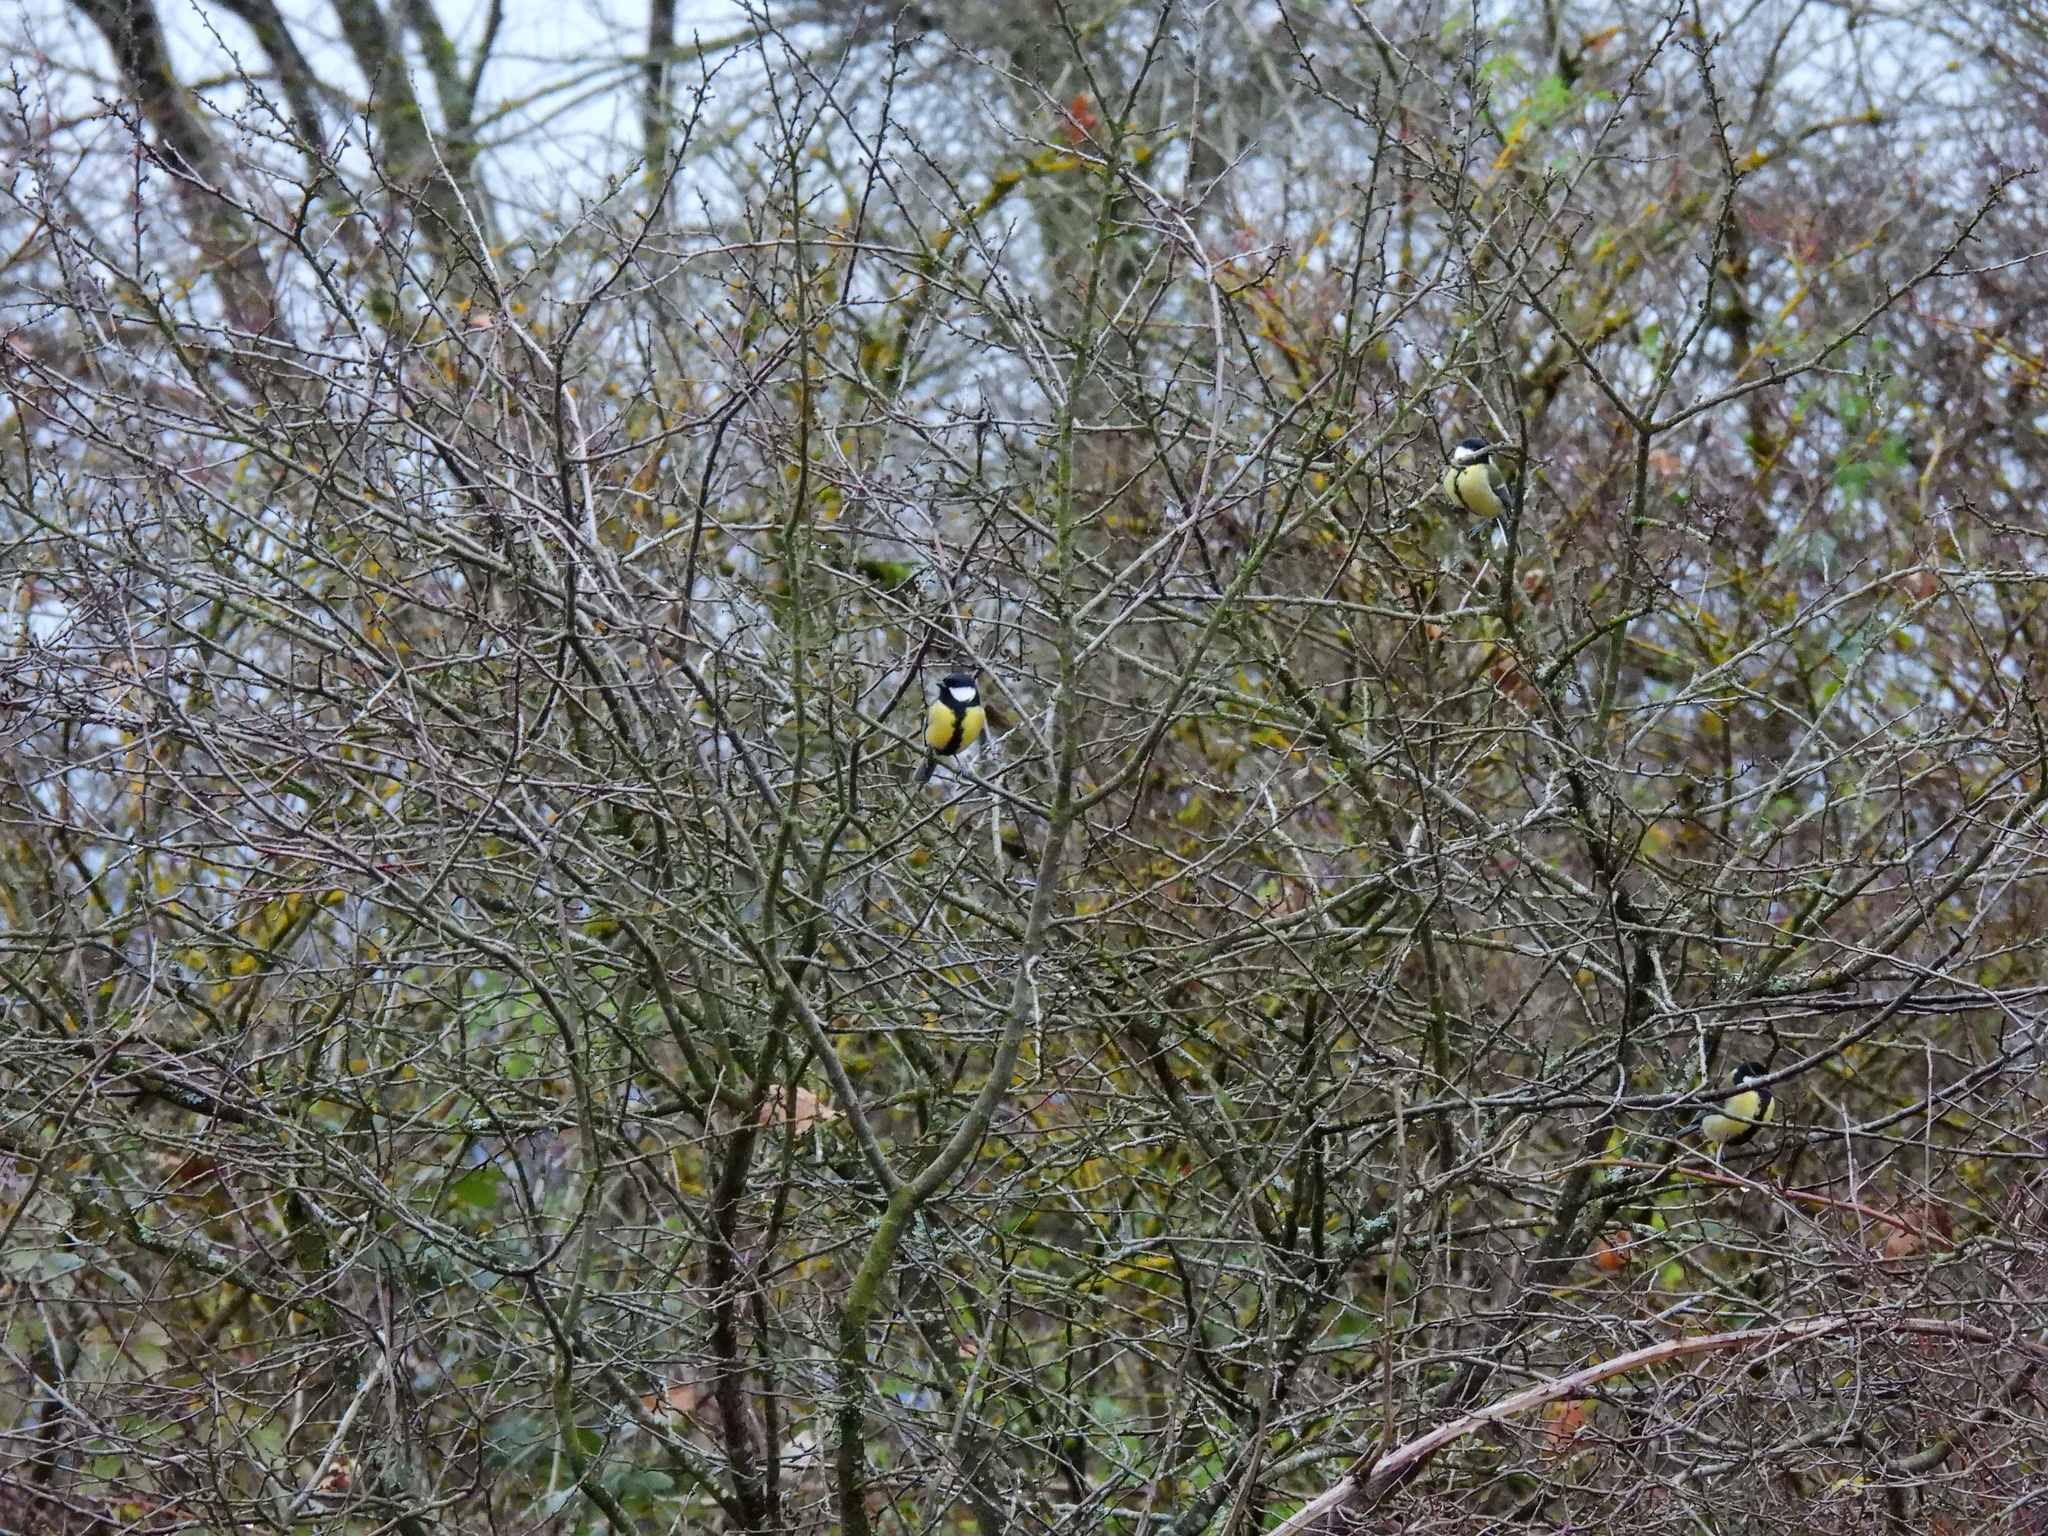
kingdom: Animalia
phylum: Chordata
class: Aves
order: Passeriformes
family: Paridae
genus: Parus
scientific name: Parus major
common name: Great tit
